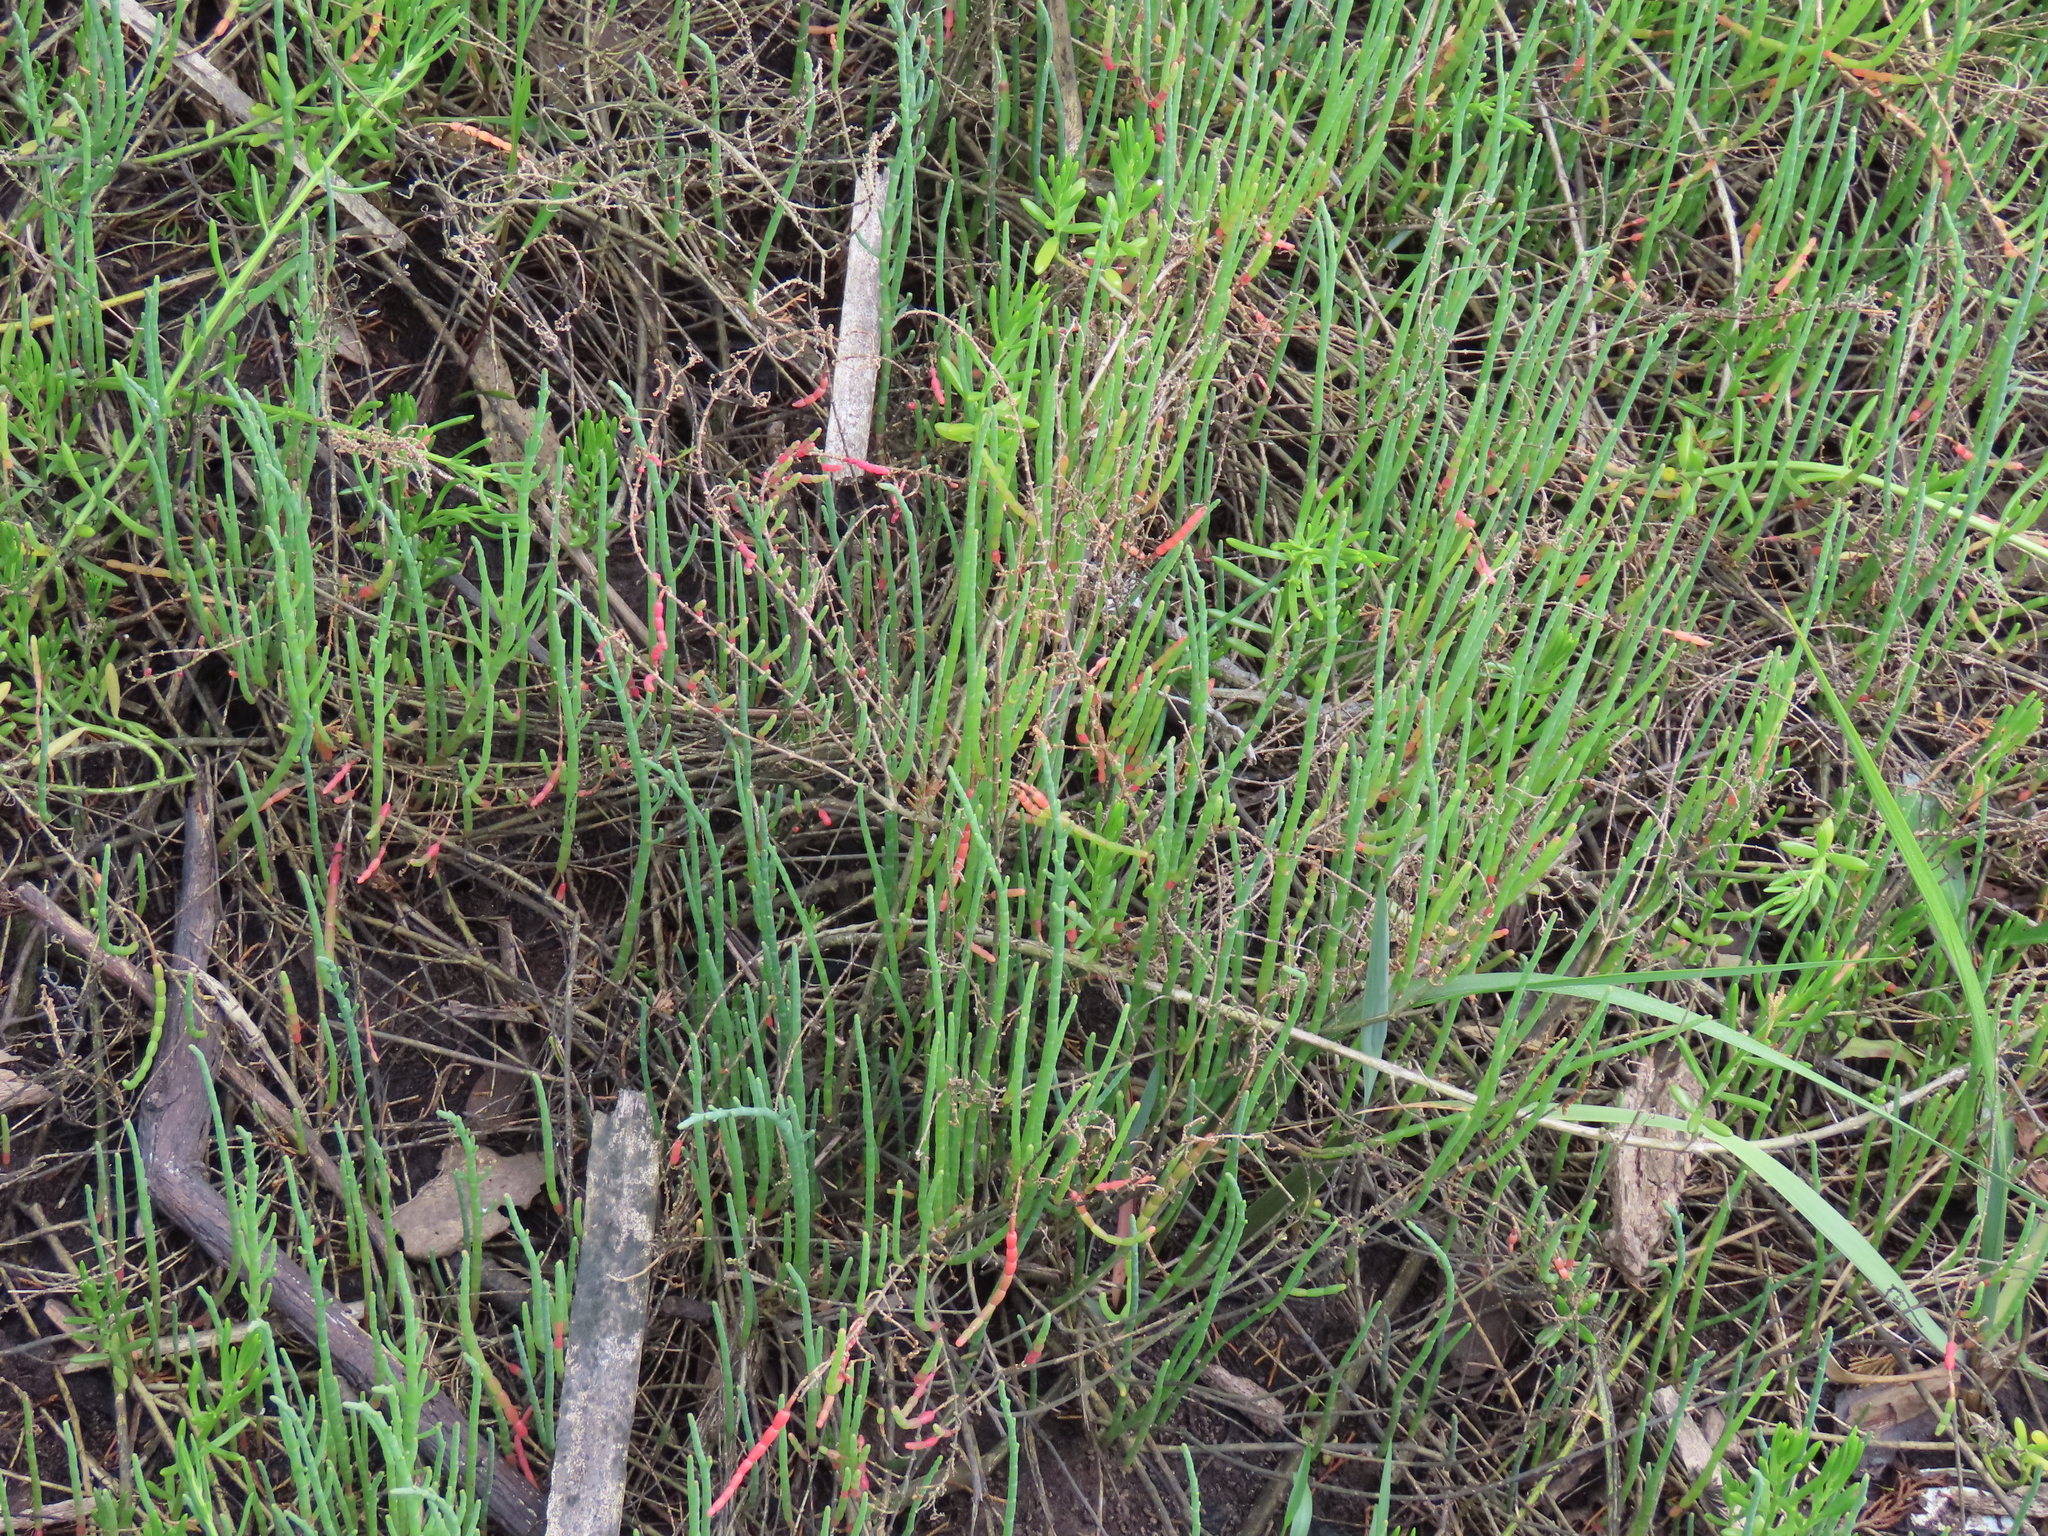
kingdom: Plantae
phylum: Tracheophyta
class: Magnoliopsida
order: Caryophyllales
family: Amaranthaceae
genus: Salicornia
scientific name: Salicornia ambigua
